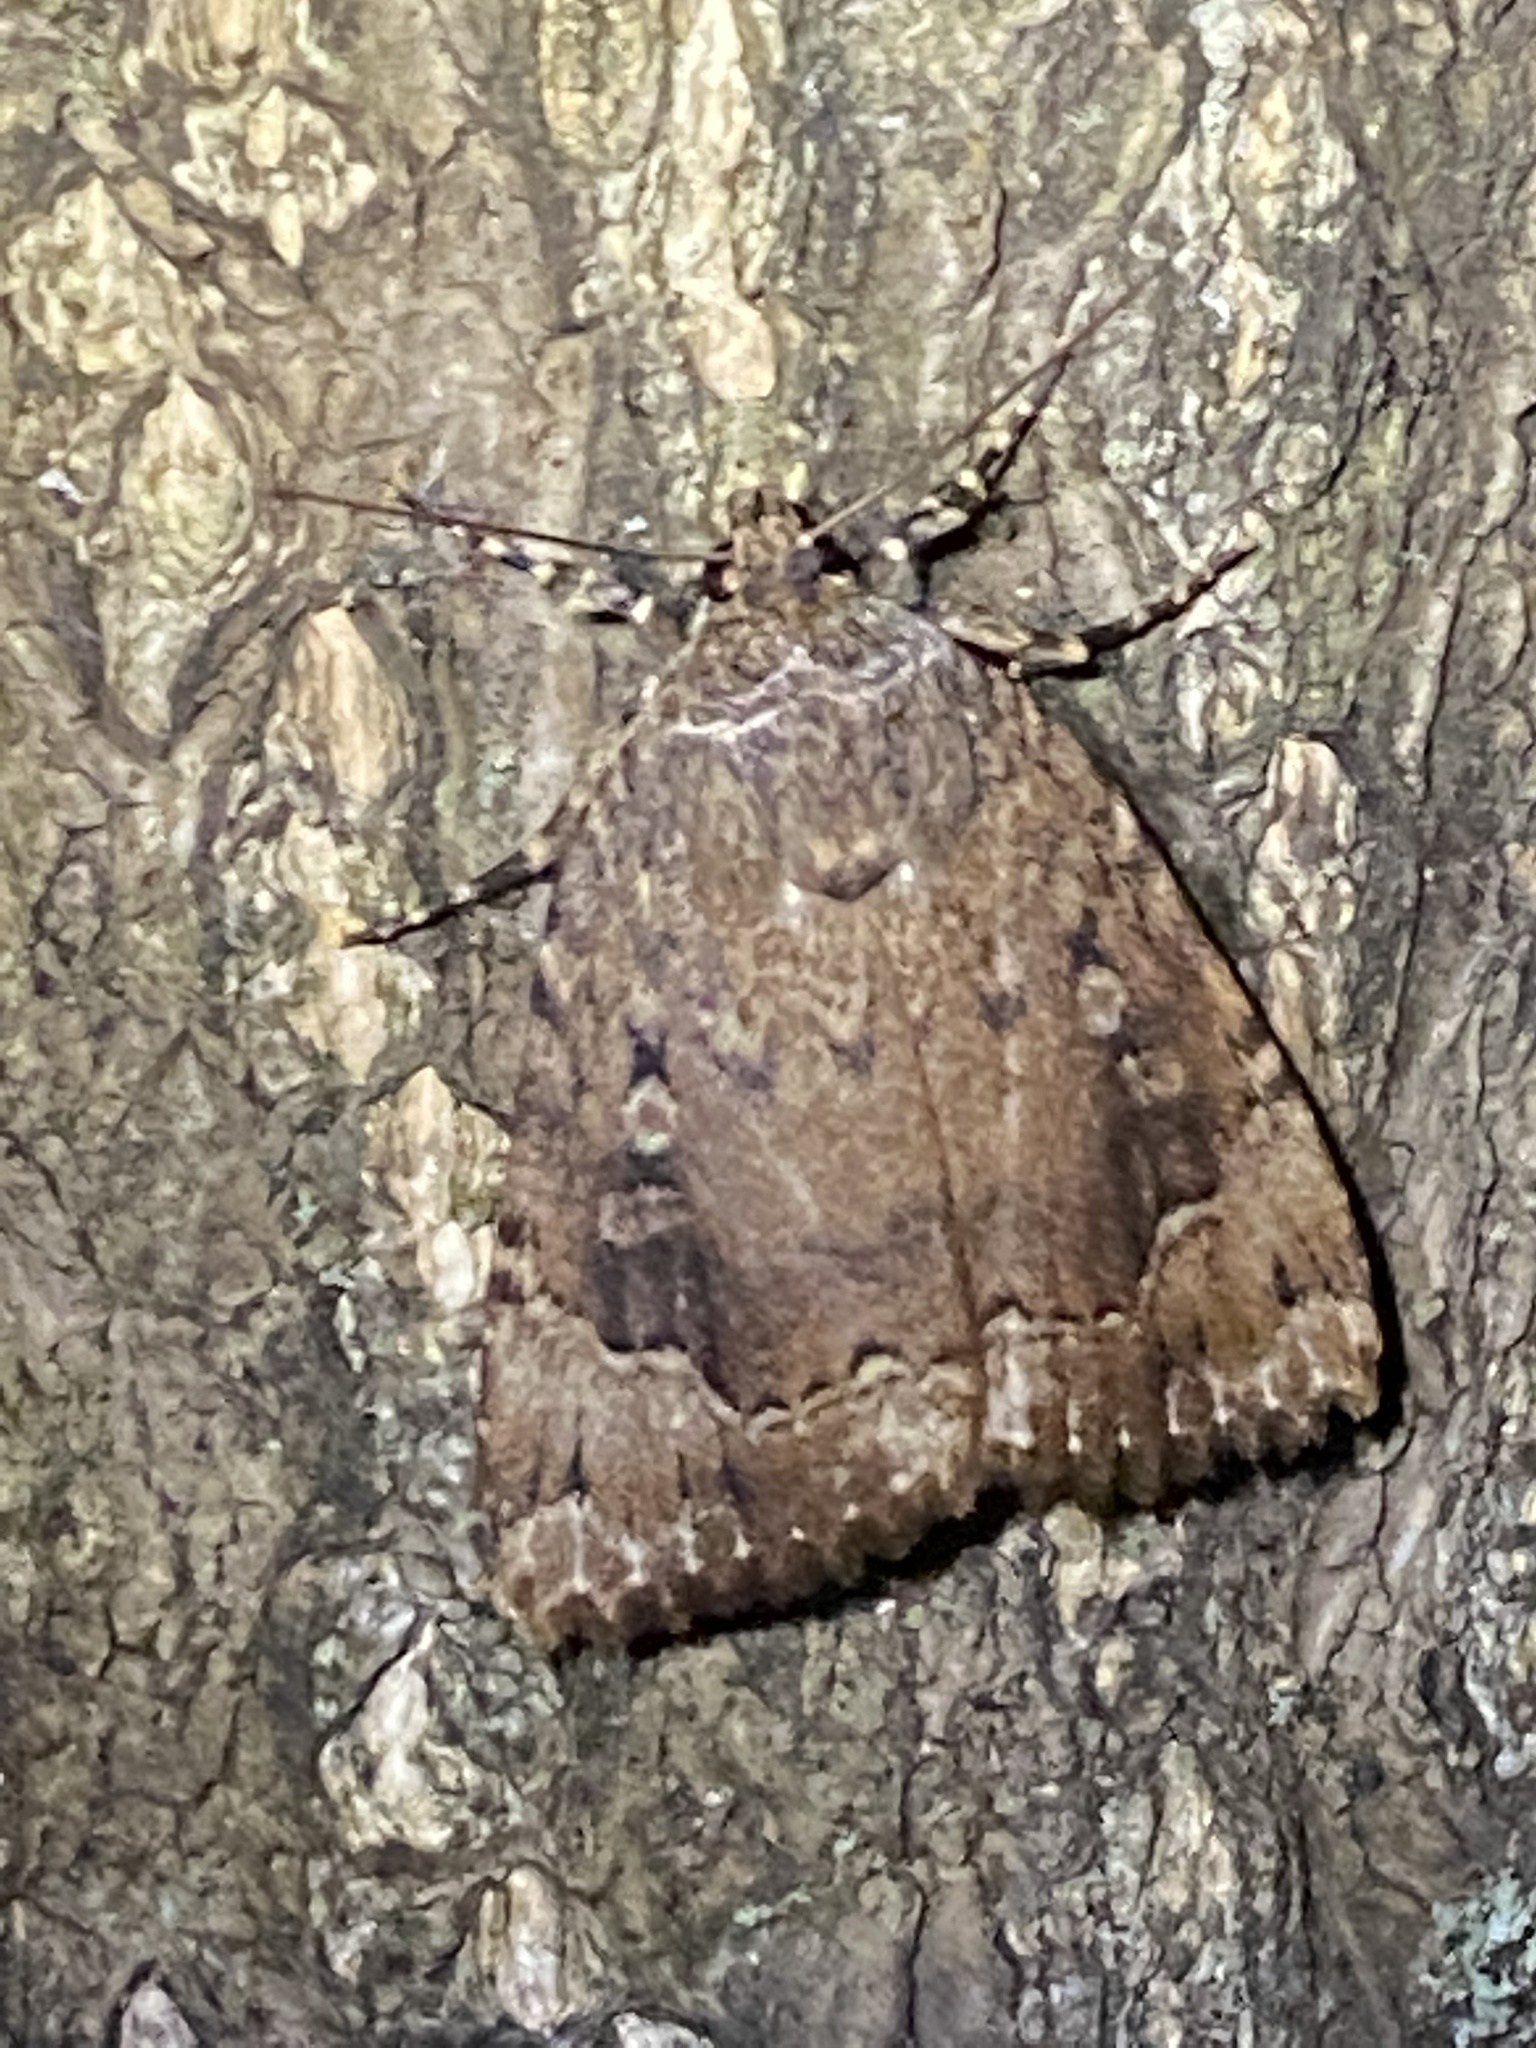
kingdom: Animalia
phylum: Arthropoda
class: Insecta
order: Lepidoptera
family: Noctuidae
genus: Amphipyra
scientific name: Amphipyra pyramidoides
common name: American copper underwing
